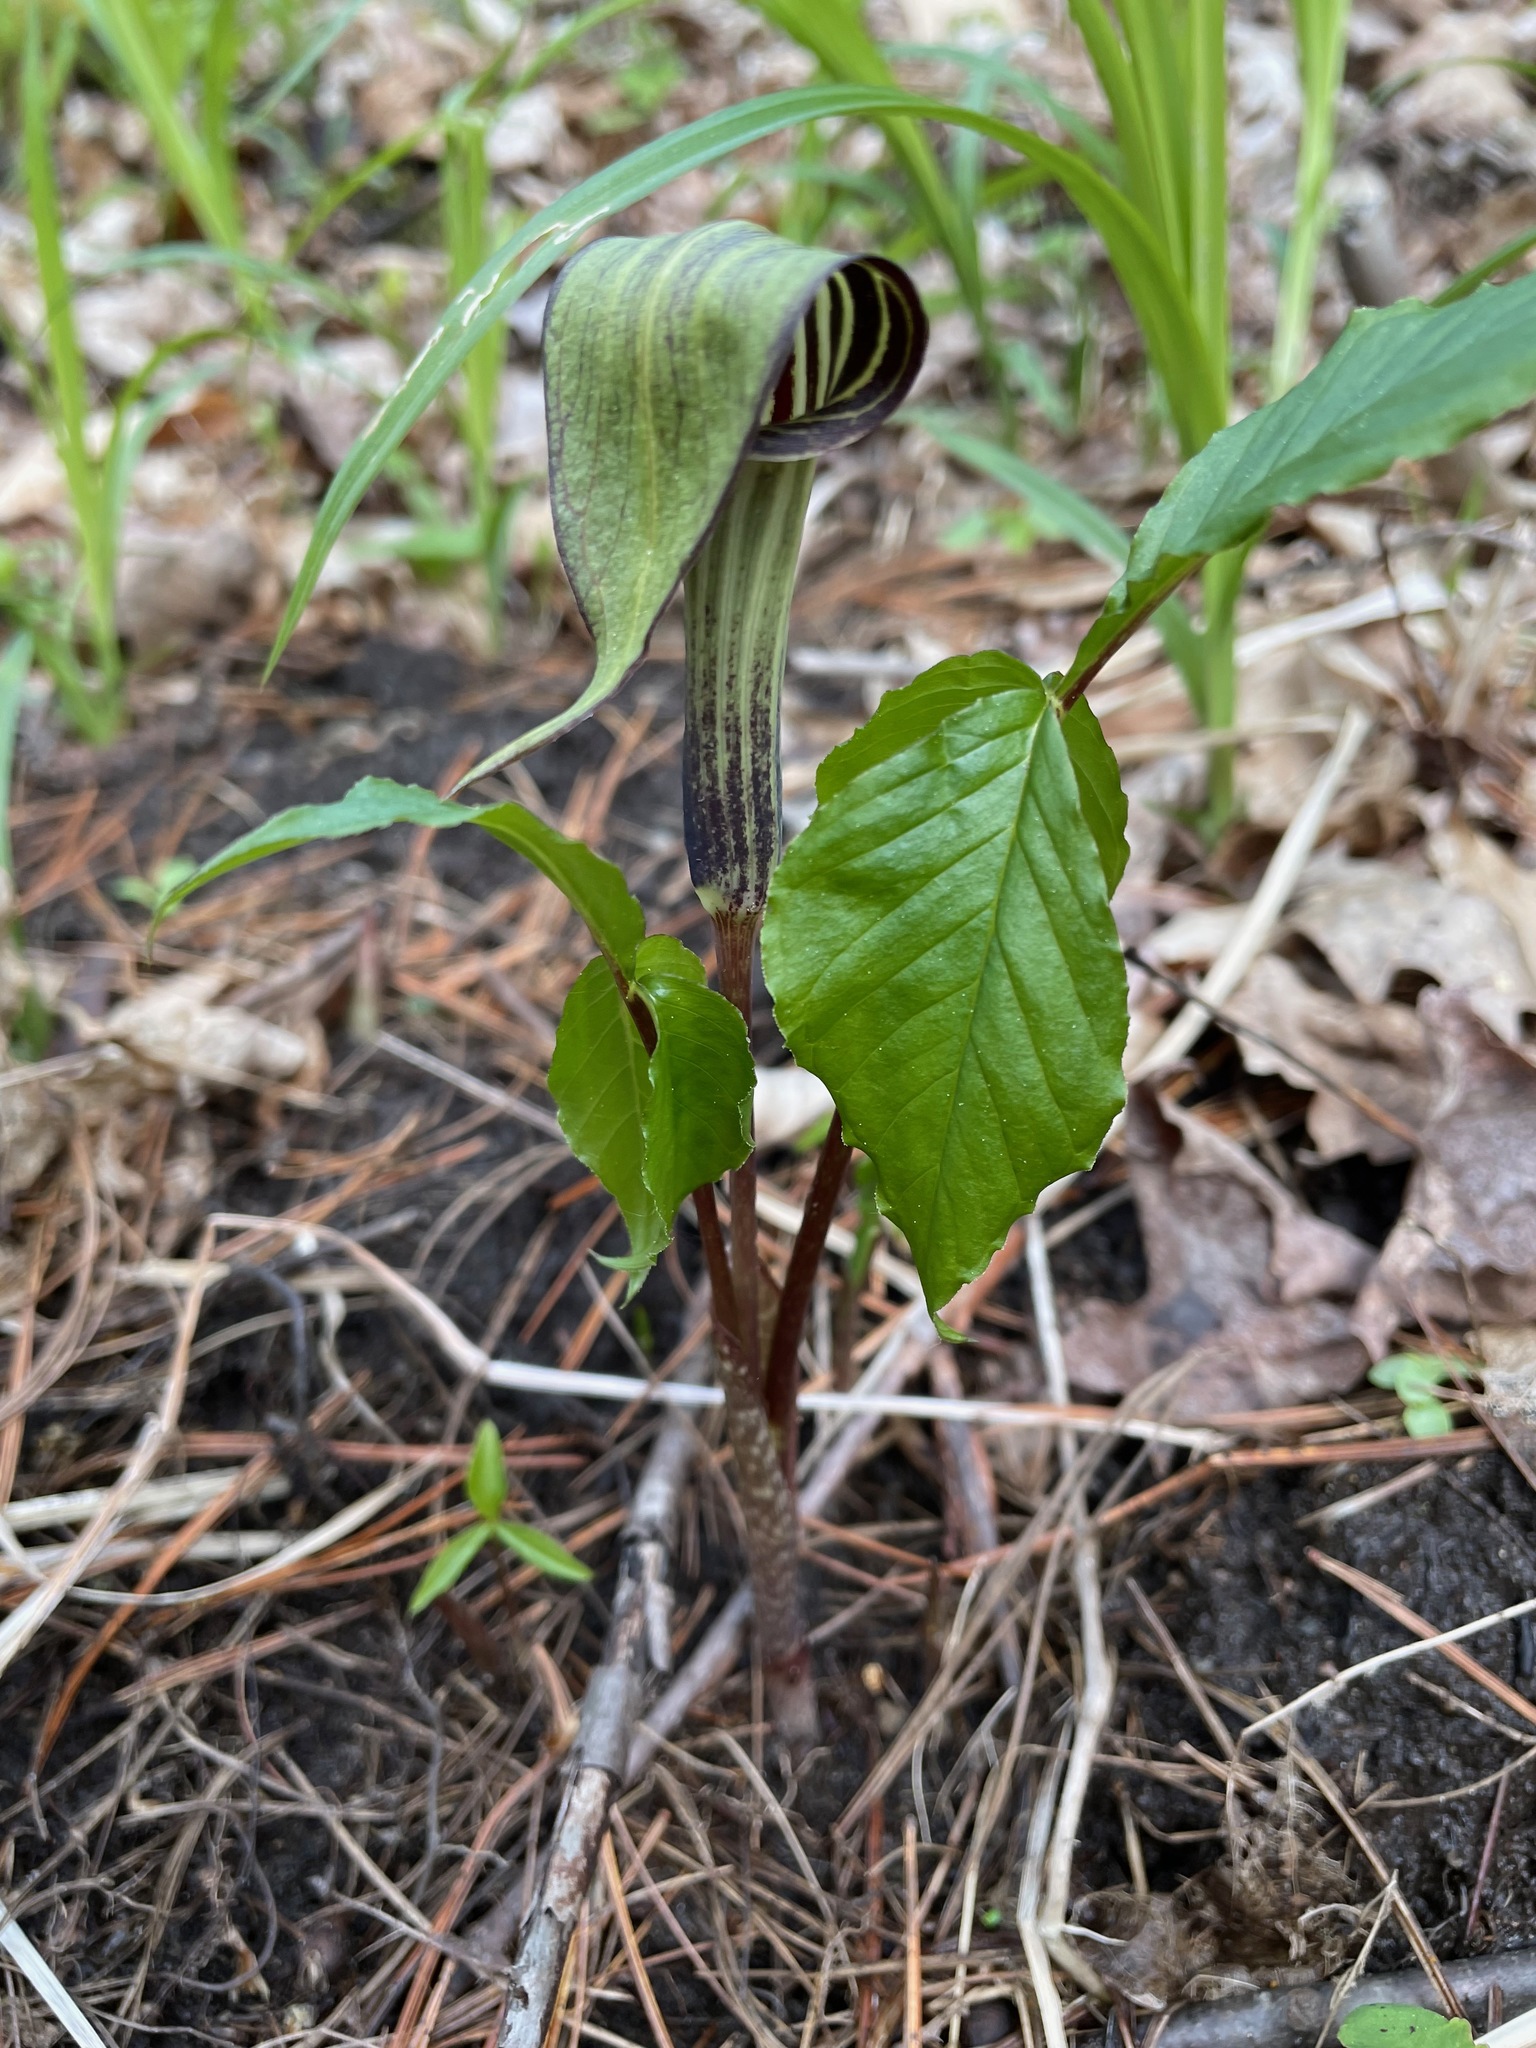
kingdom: Plantae
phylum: Tracheophyta
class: Liliopsida
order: Alismatales
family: Araceae
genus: Arisaema
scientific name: Arisaema triphyllum
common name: Jack-in-the-pulpit
